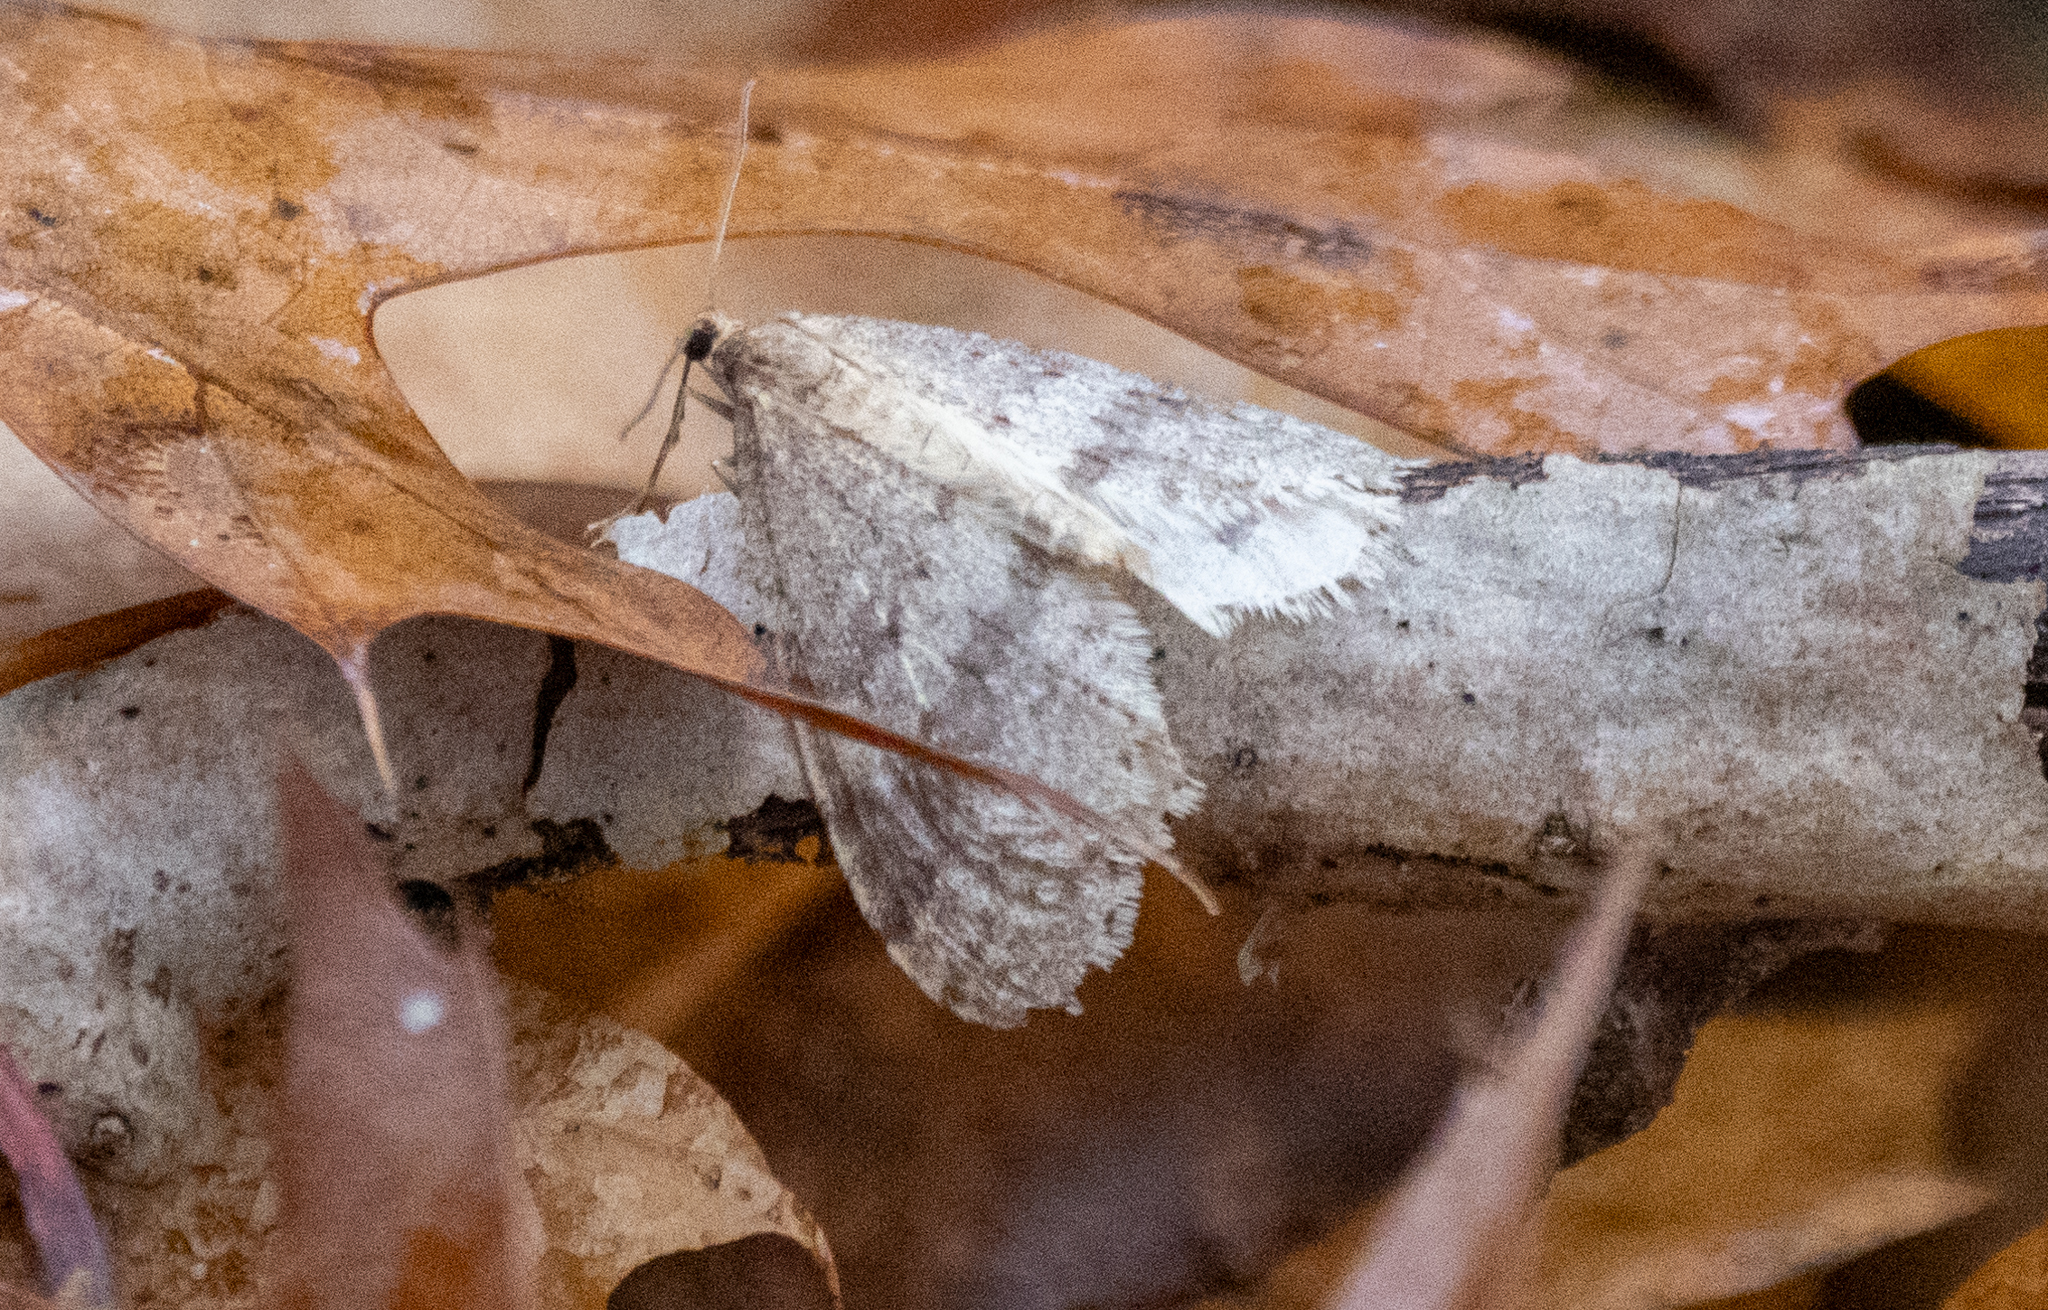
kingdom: Animalia
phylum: Arthropoda
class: Insecta
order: Lepidoptera
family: Geometridae
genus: Operophtera
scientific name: Operophtera bruceata
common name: Bruce spanworm
